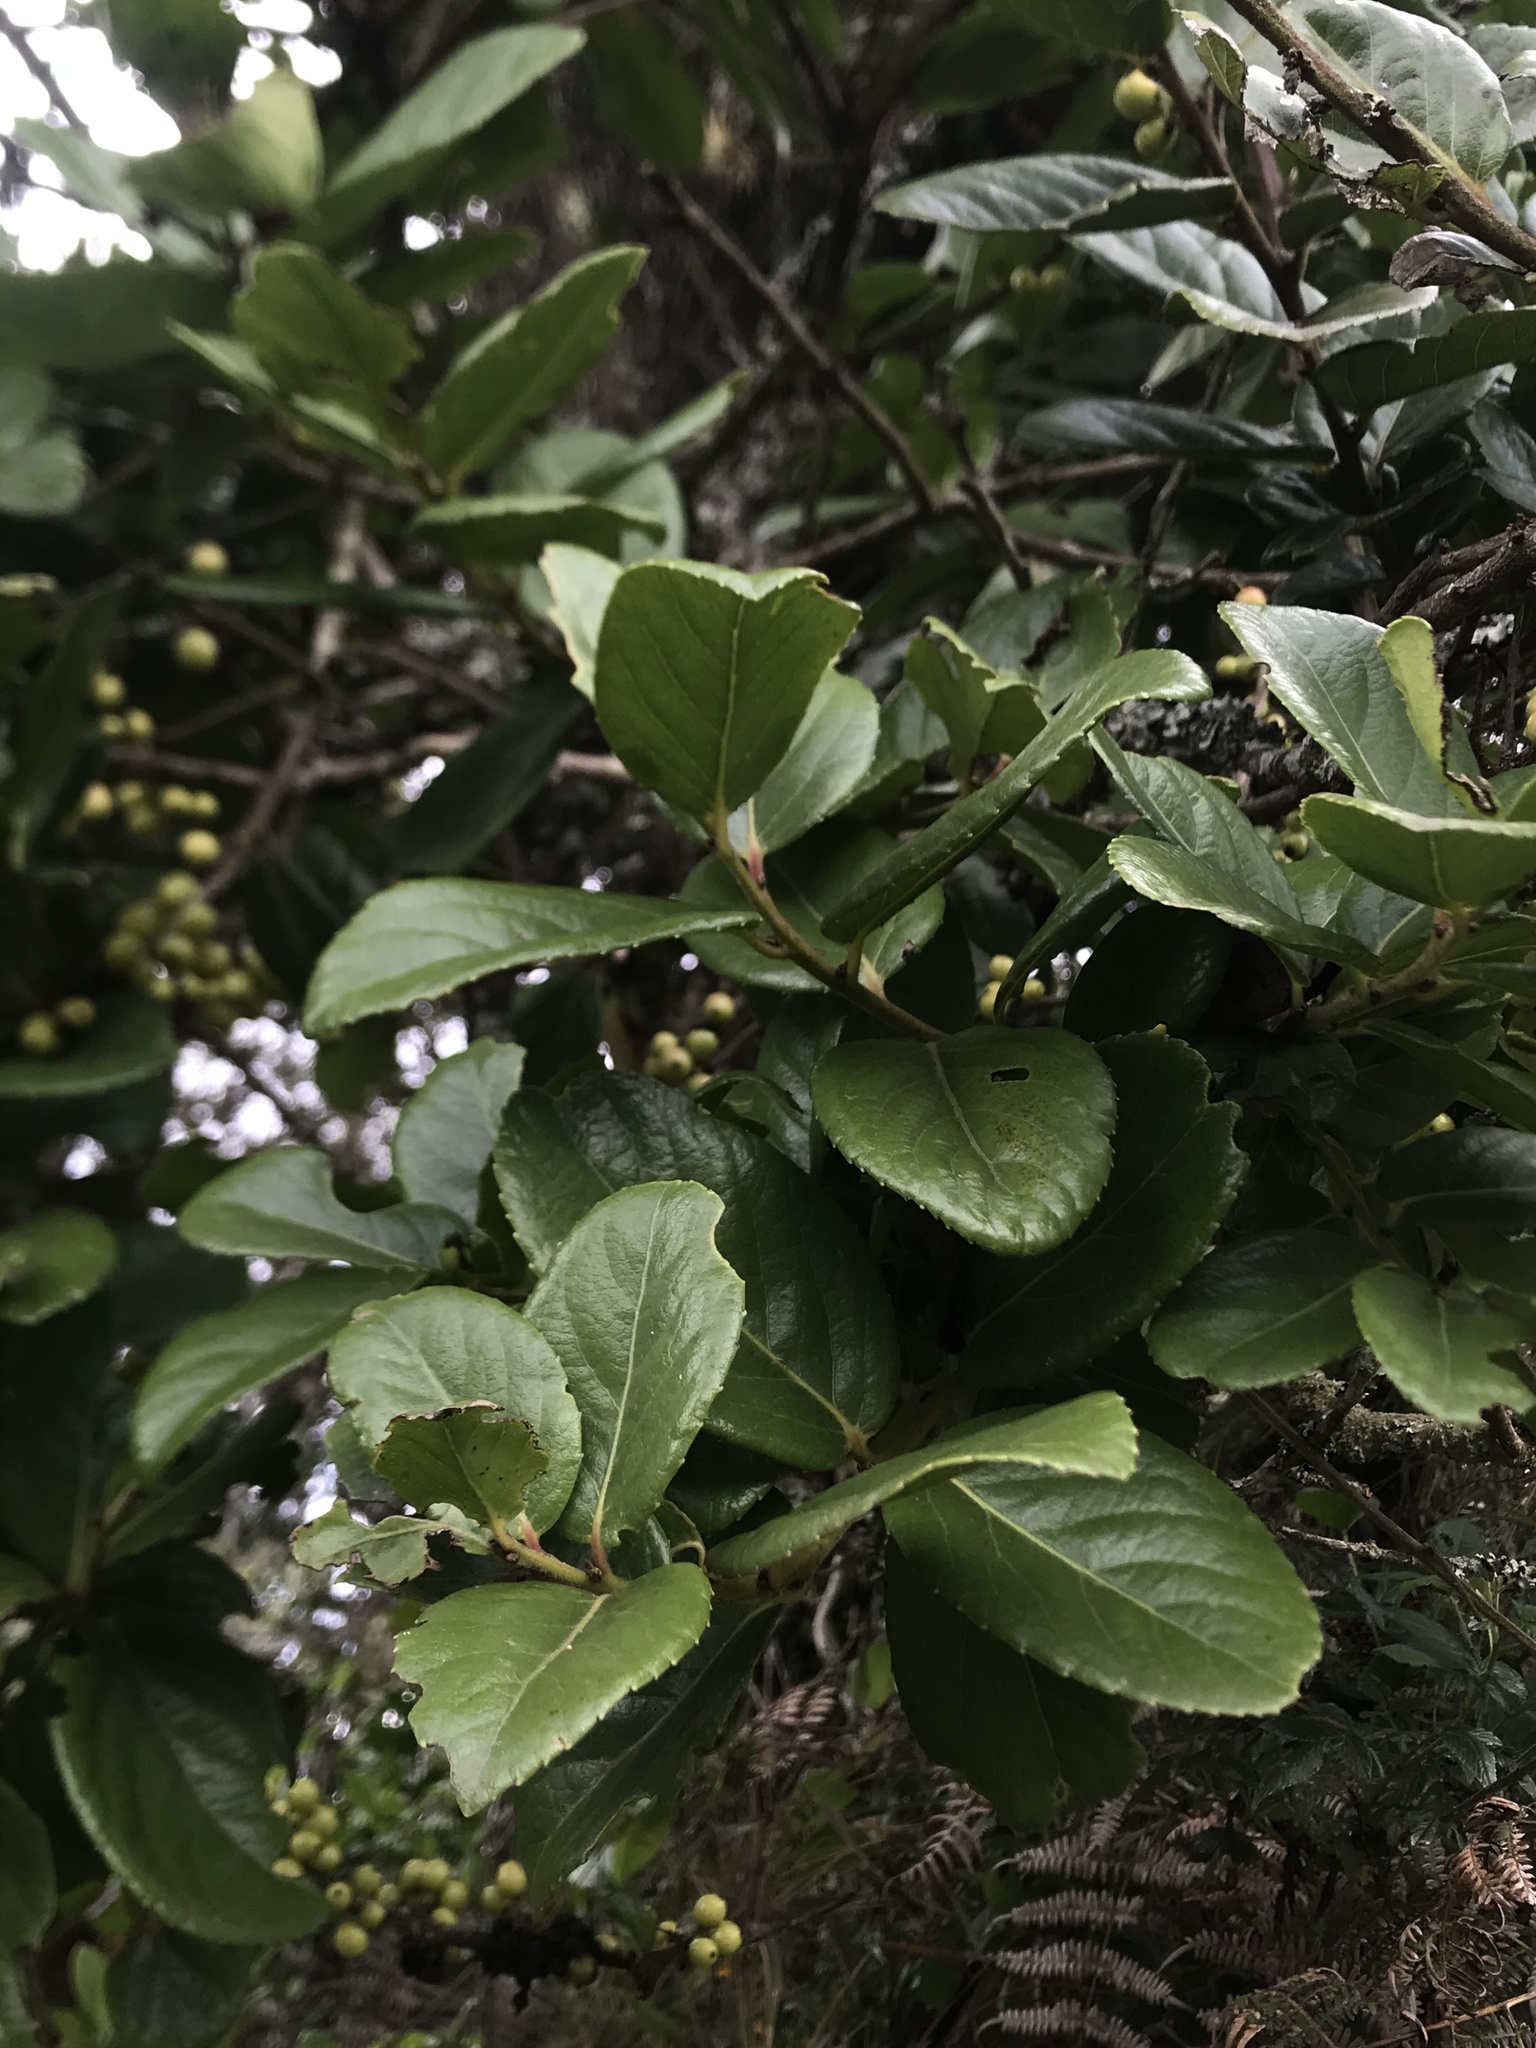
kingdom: Plantae
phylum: Tracheophyta
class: Magnoliopsida
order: Malpighiales
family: Salicaceae
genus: Xylosma
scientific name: Xylosma spiculifera
